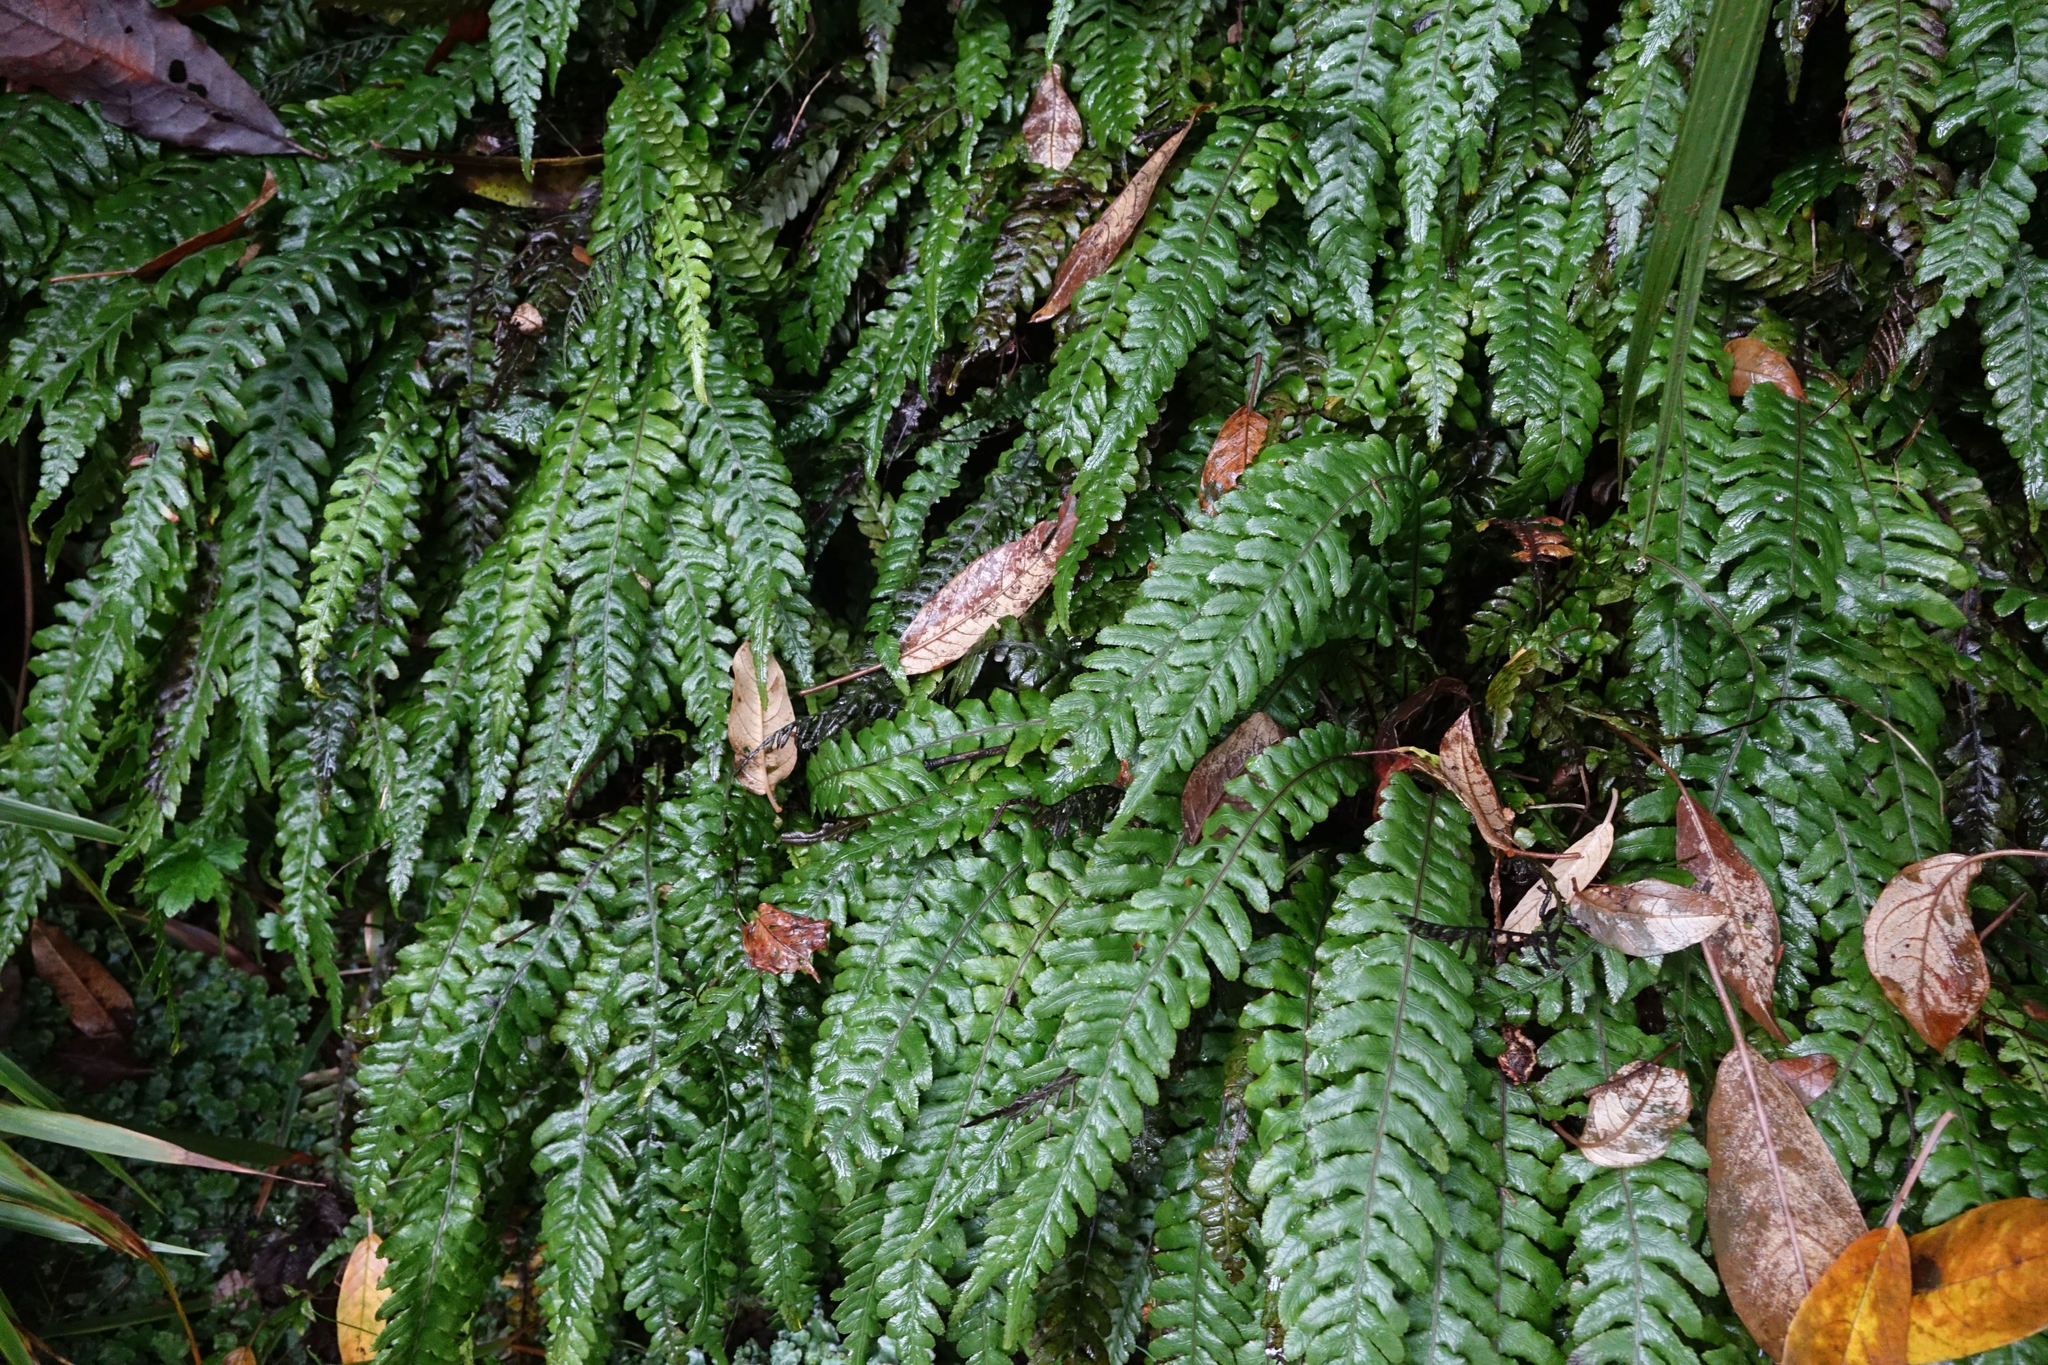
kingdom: Plantae
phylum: Tracheophyta
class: Polypodiopsida
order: Polypodiales
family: Blechnaceae
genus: Austroblechnum
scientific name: Austroblechnum lanceolatum
